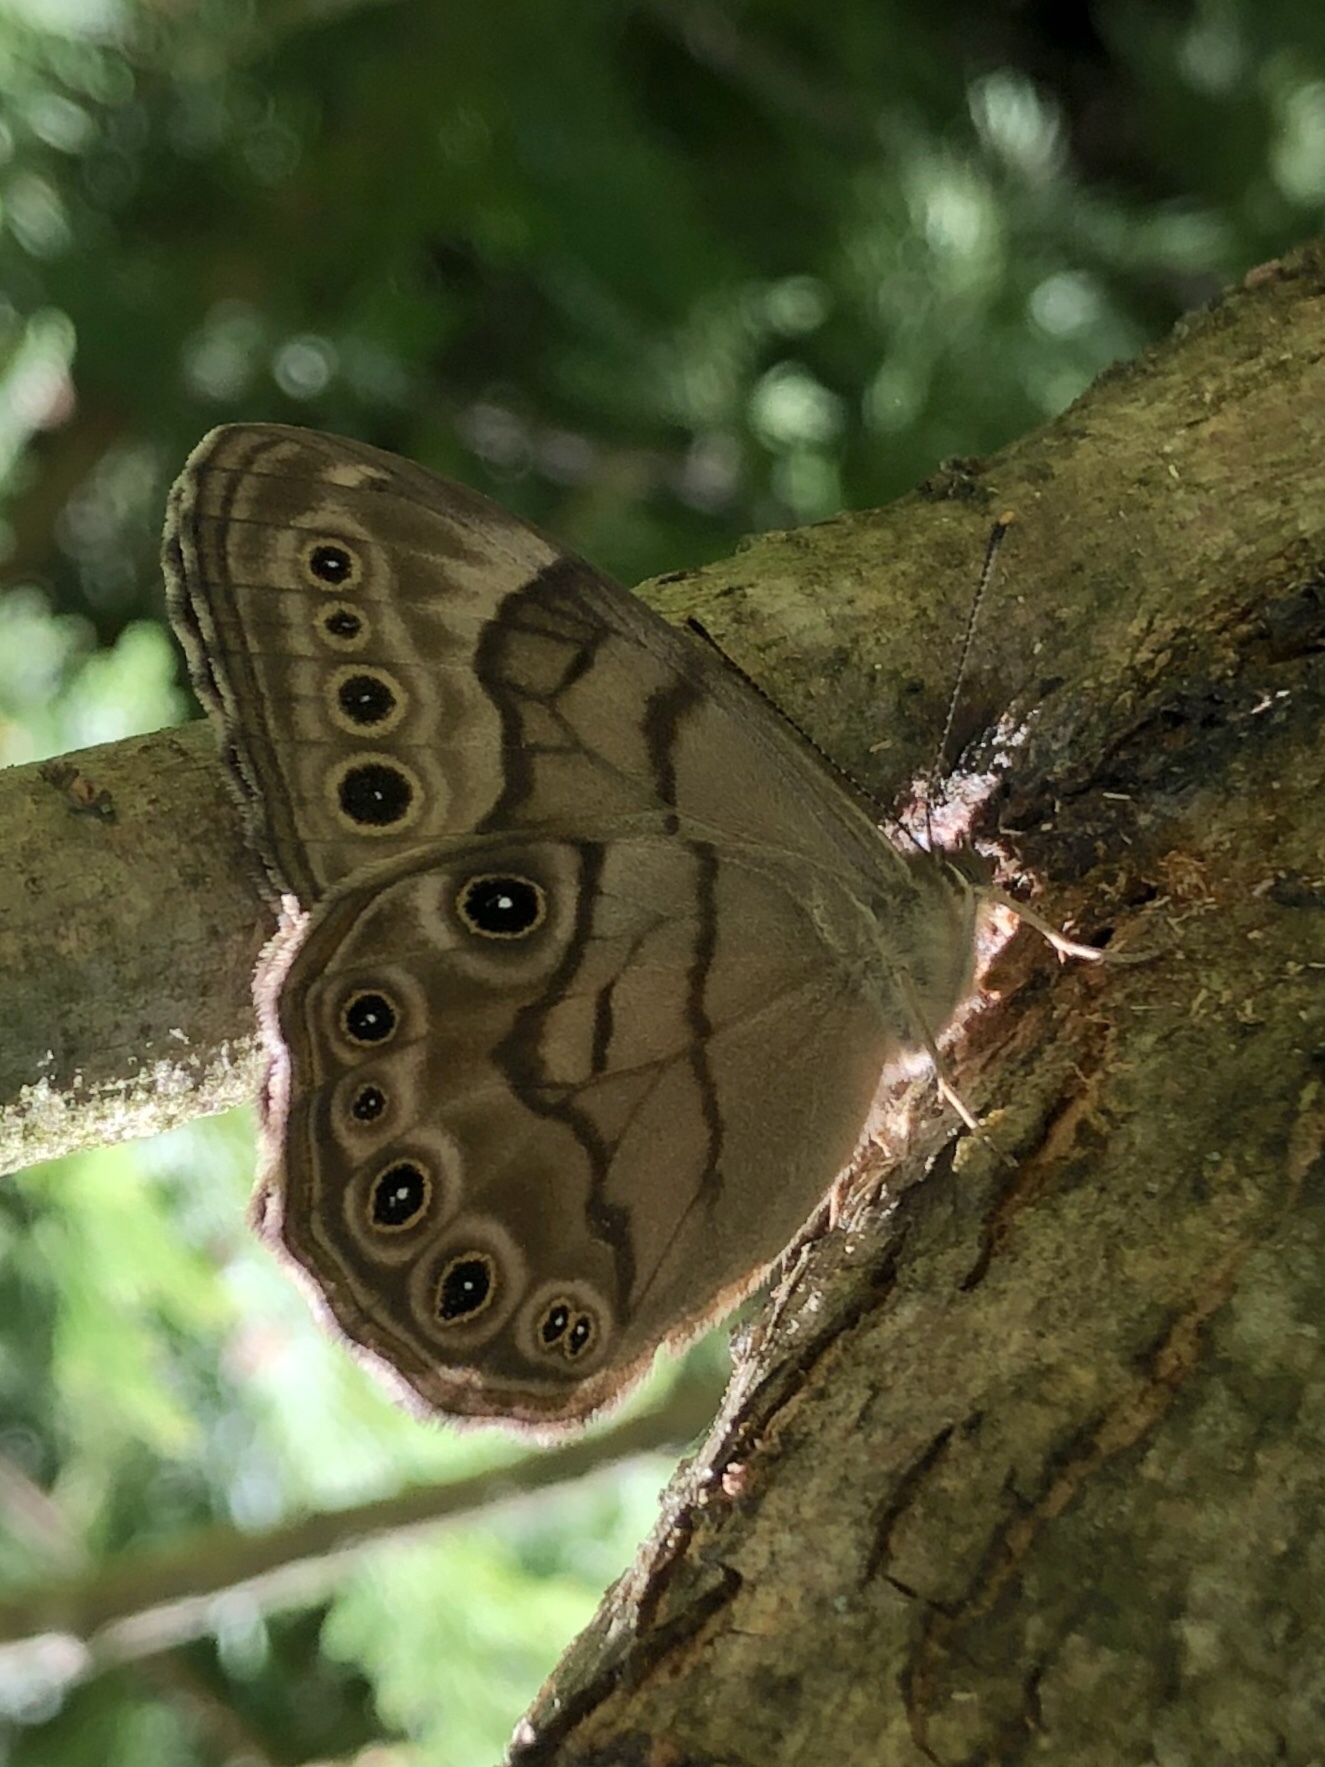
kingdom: Animalia
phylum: Arthropoda
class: Insecta
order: Lepidoptera
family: Nymphalidae
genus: Lethe
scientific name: Lethe anthedon
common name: Northern pearly-eye
